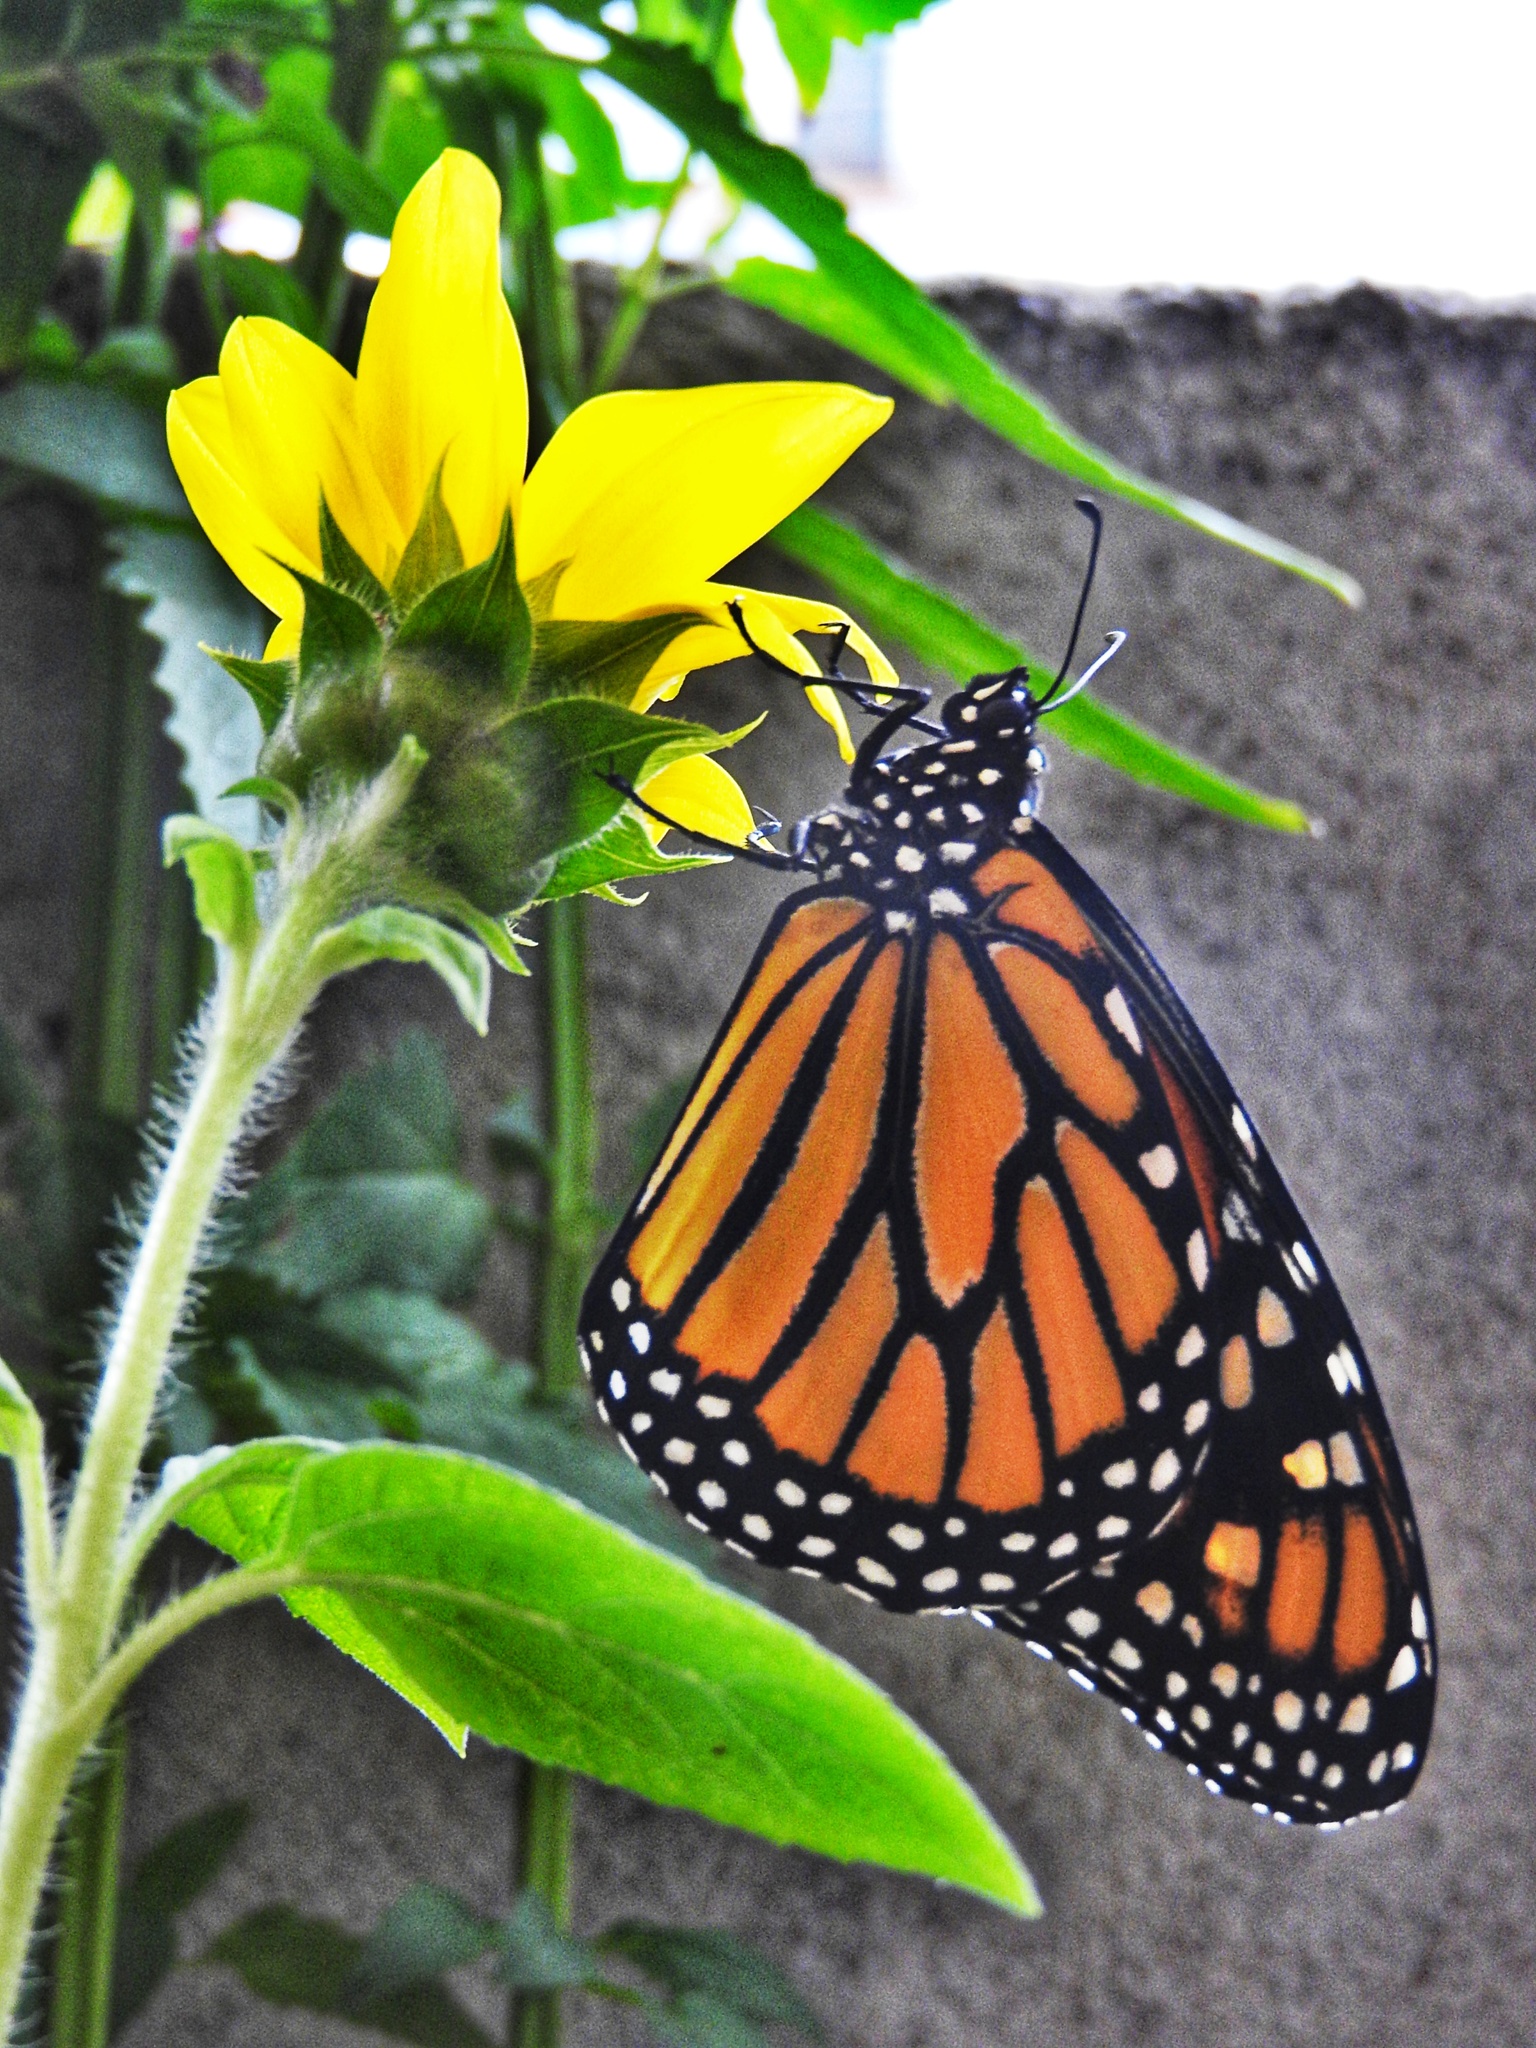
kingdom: Animalia
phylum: Arthropoda
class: Insecta
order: Lepidoptera
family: Nymphalidae
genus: Danaus
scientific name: Danaus plexippus
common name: Monarch
